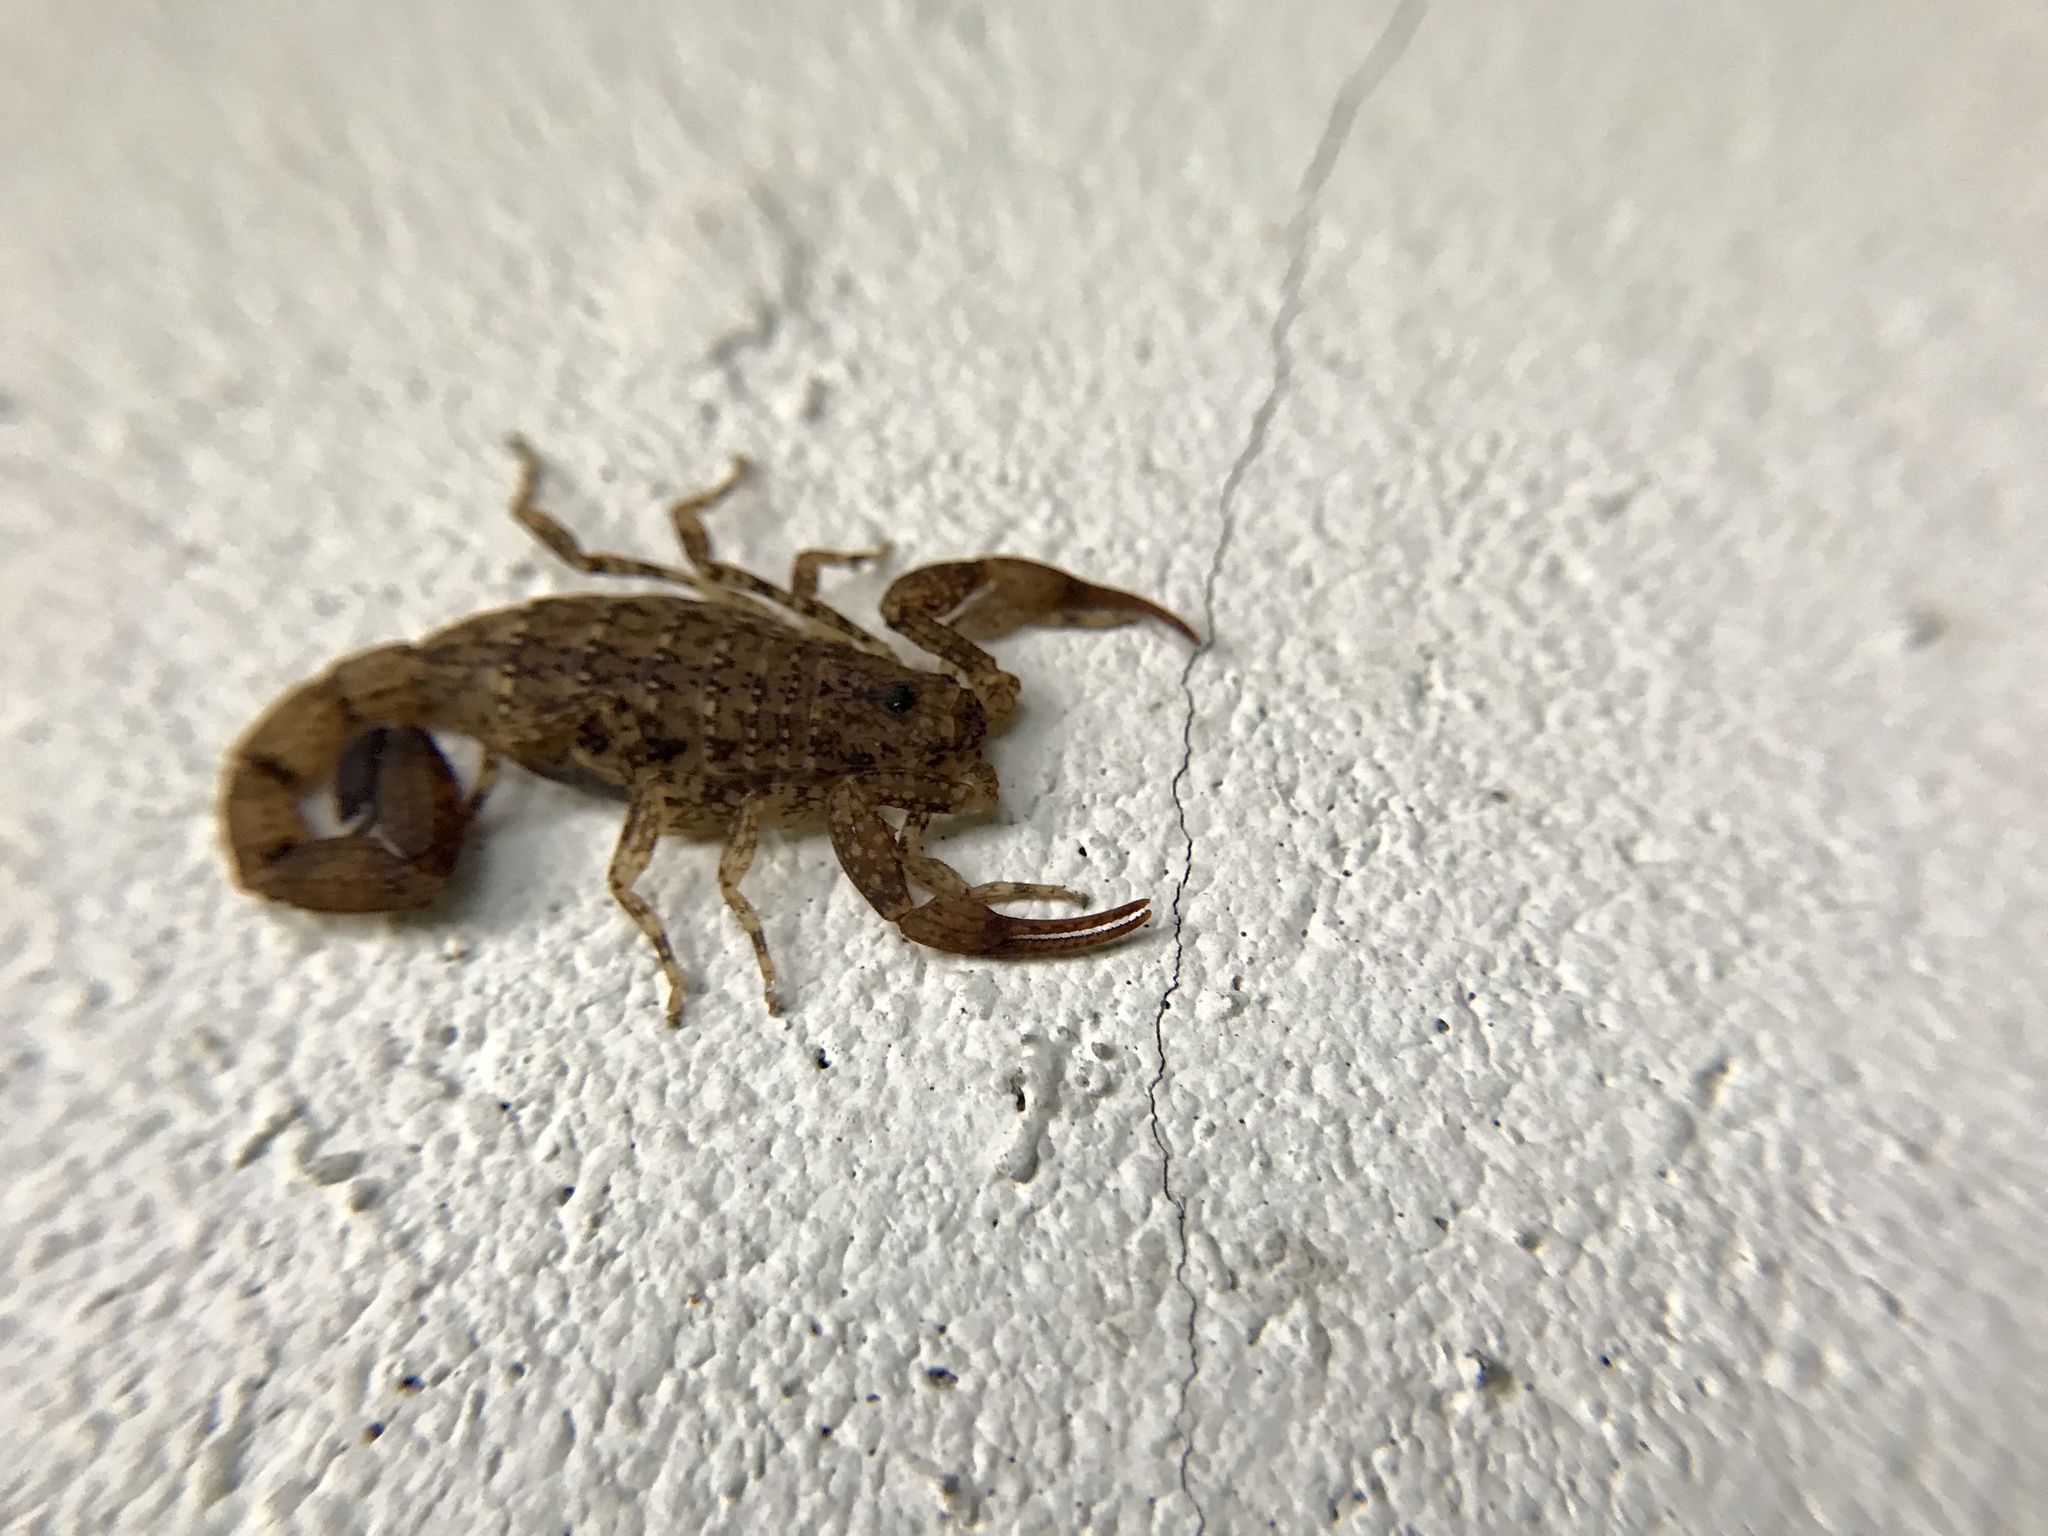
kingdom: Animalia
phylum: Arthropoda
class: Arachnida
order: Scorpiones
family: Buthidae
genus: Tityus
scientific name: Tityus ocelote
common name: Scorpions
